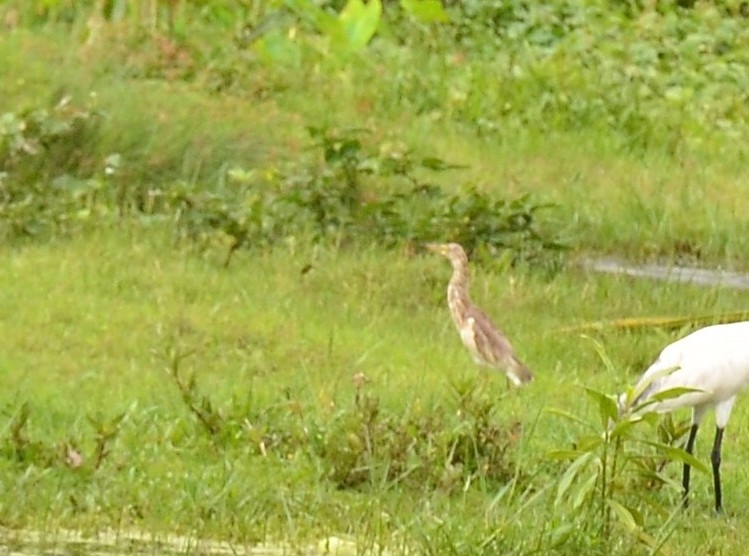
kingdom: Animalia
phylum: Chordata
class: Aves
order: Pelecaniformes
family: Ardeidae
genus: Ardeola
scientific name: Ardeola grayii
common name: Indian pond heron
